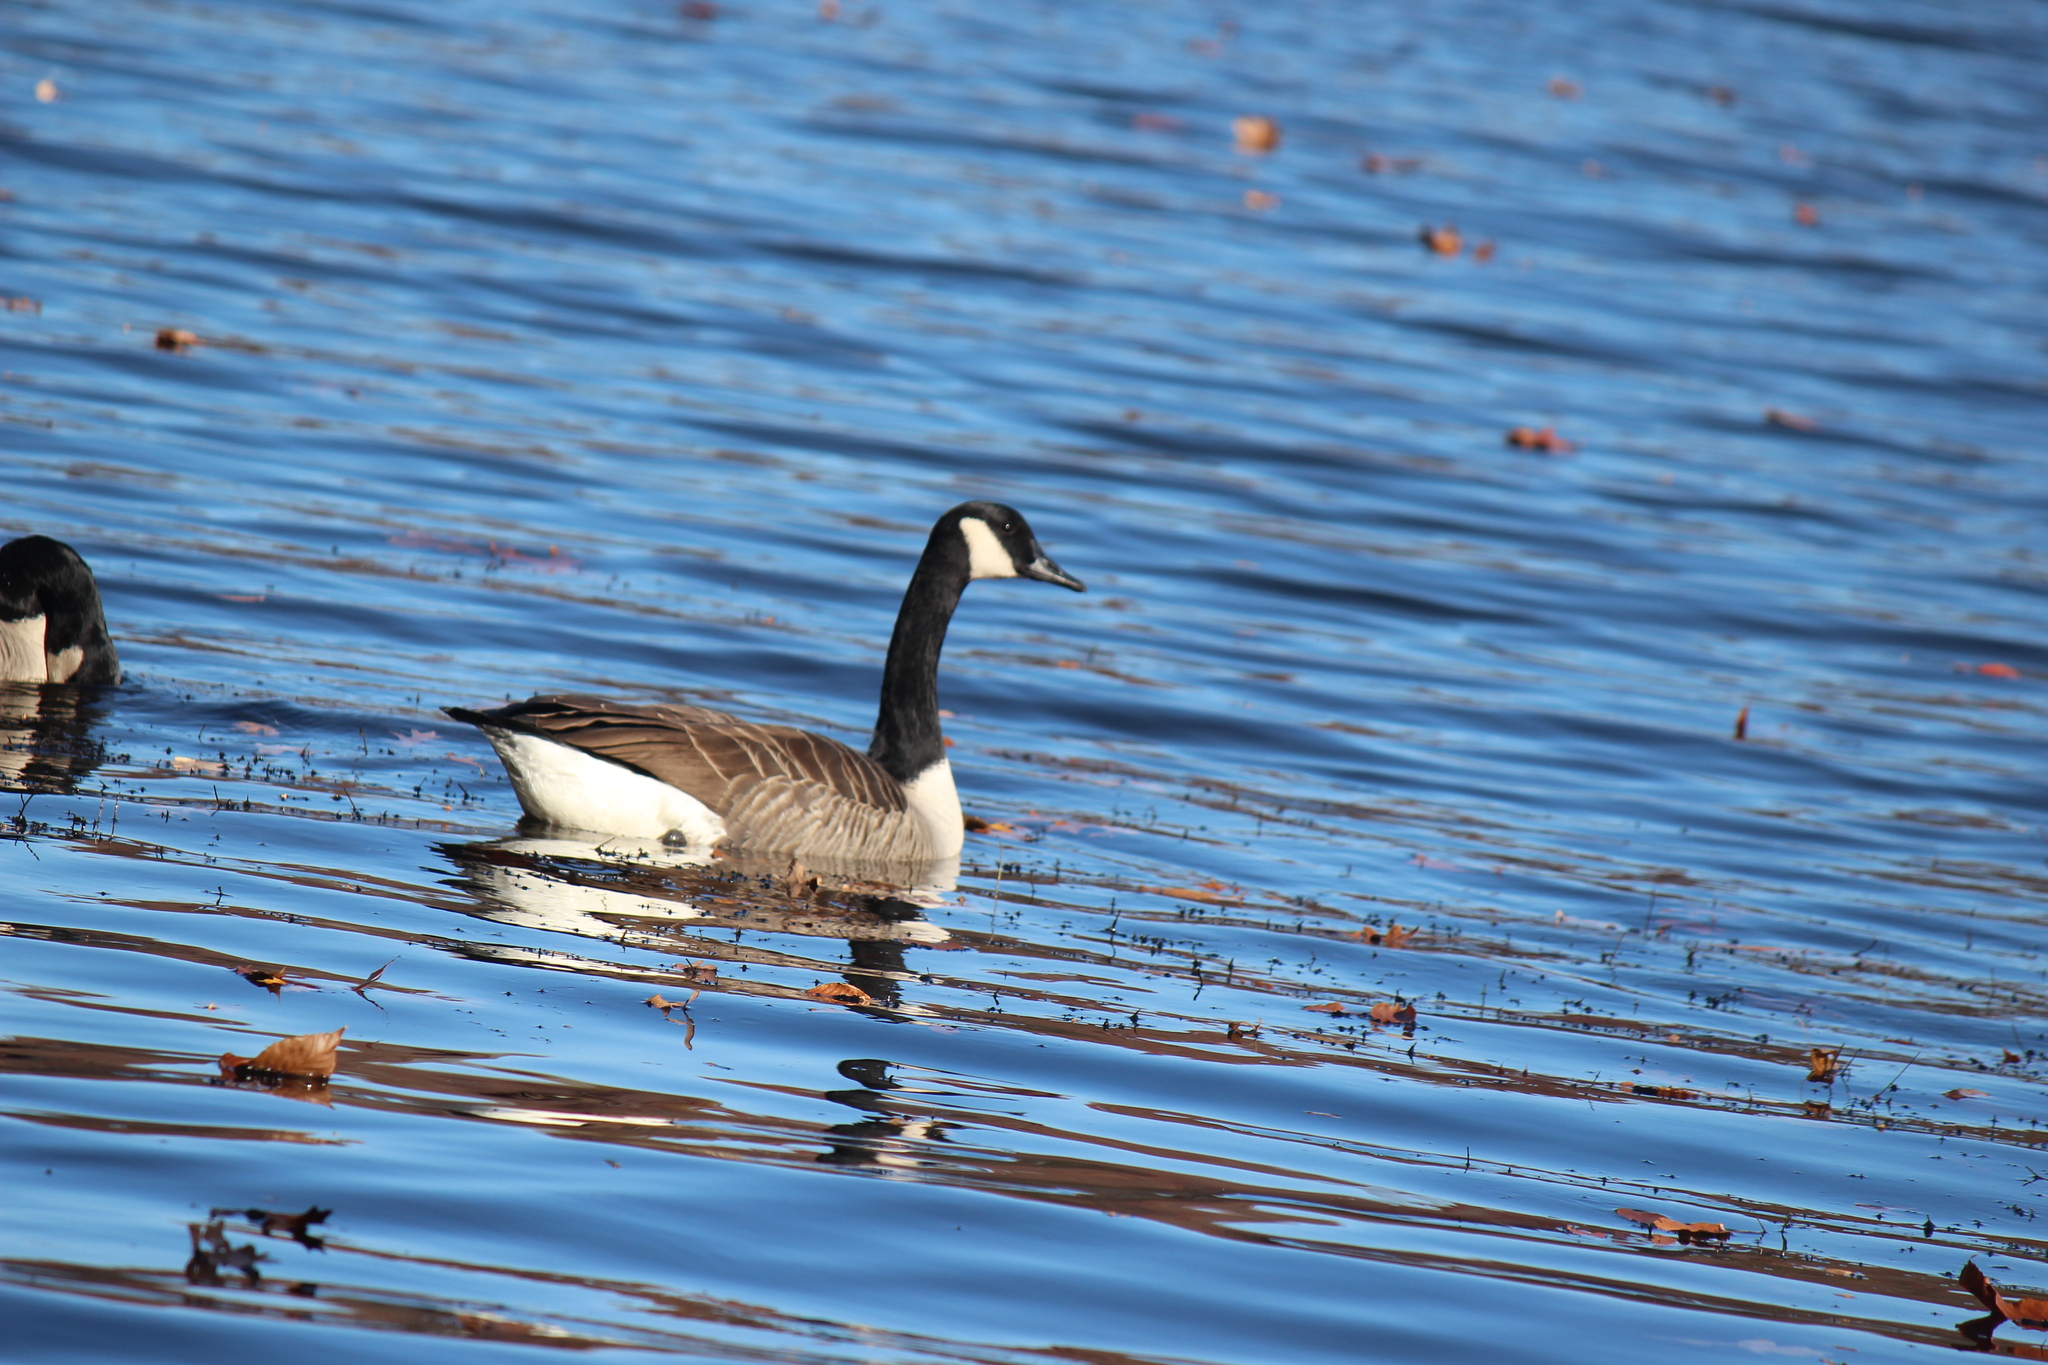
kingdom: Animalia
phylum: Chordata
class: Aves
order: Anseriformes
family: Anatidae
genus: Branta
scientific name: Branta canadensis
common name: Canada goose
